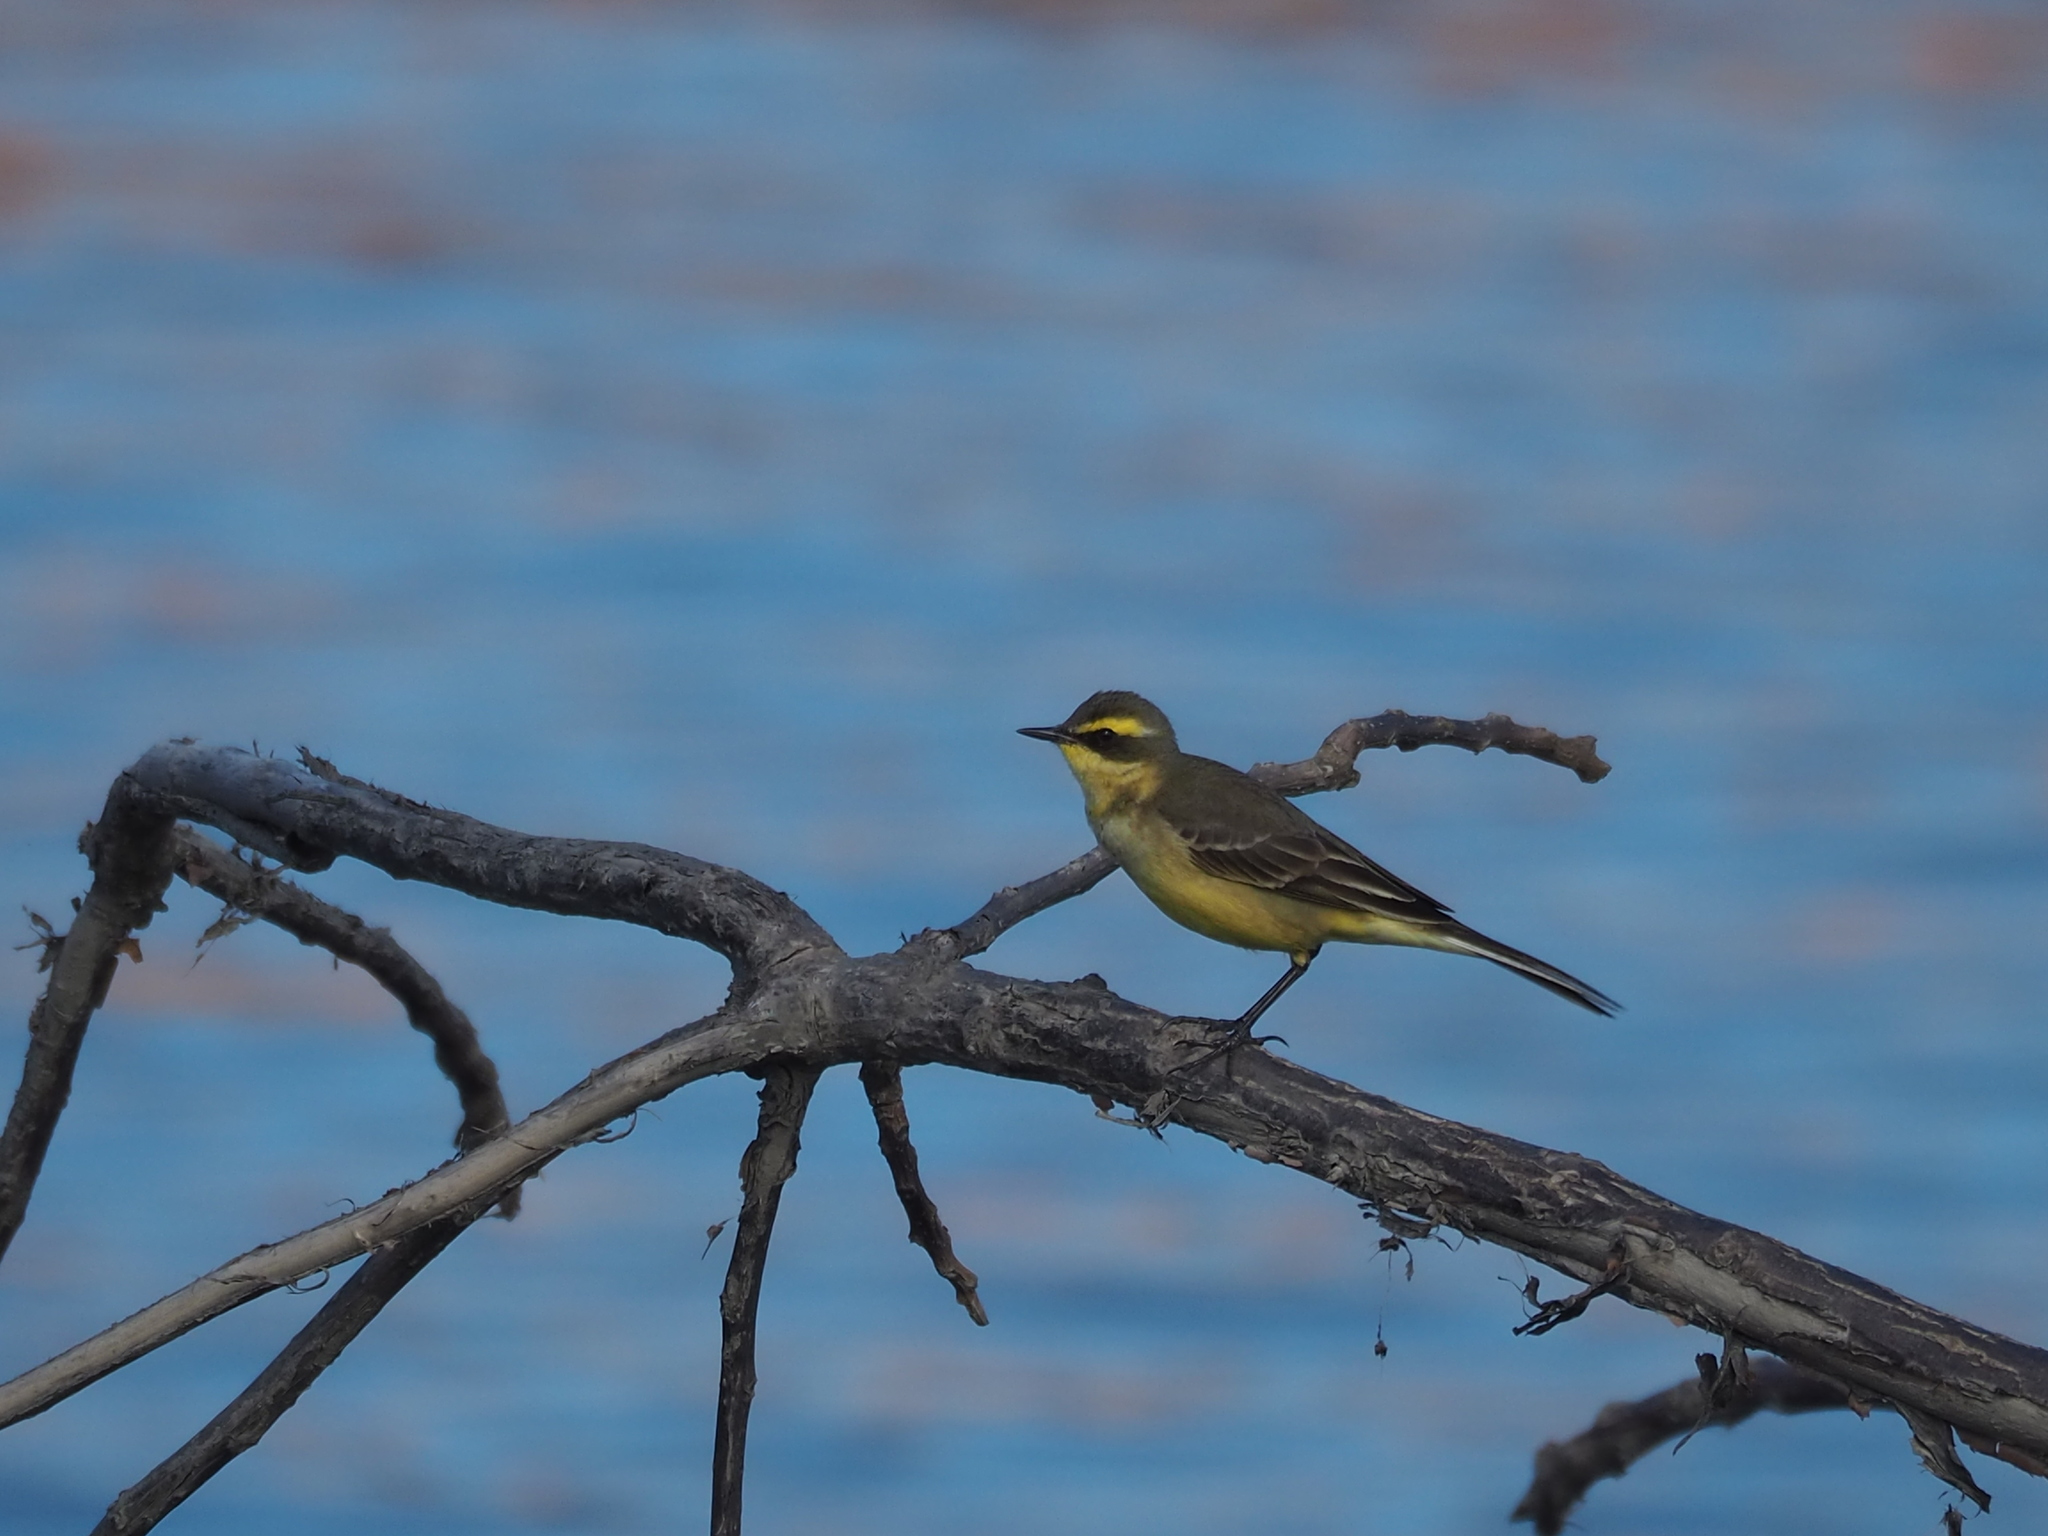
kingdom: Animalia
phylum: Chordata
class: Aves
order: Passeriformes
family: Motacillidae
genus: Motacilla
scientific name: Motacilla tschutschensis
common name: Eastern yellow wagtail
